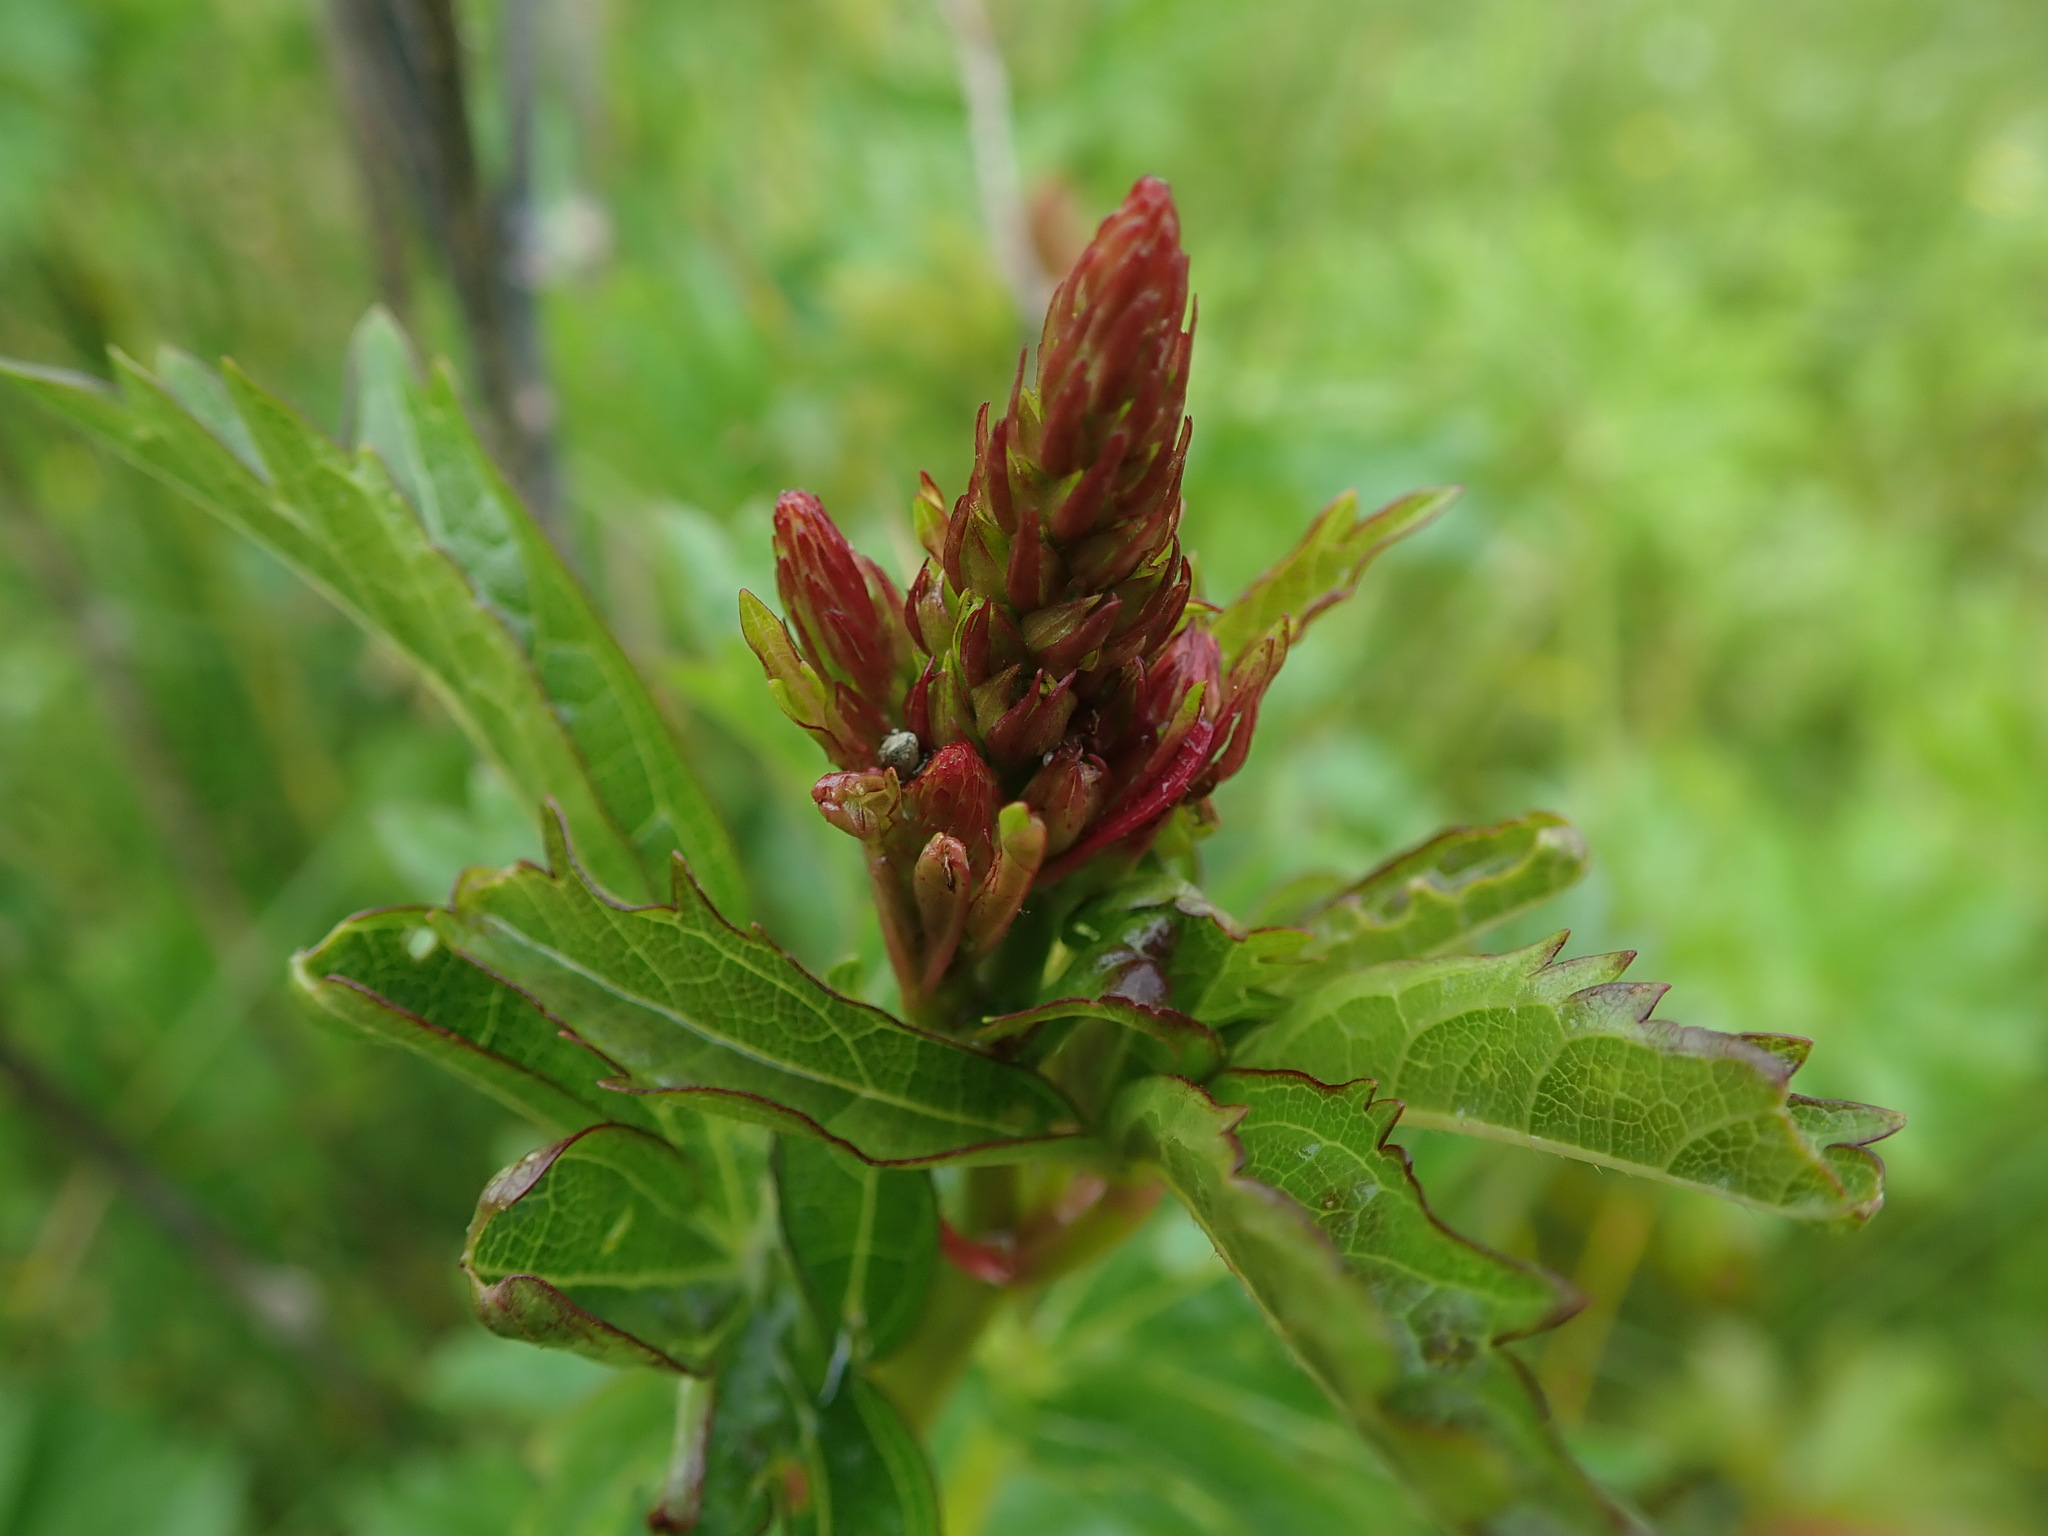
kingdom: Plantae
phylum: Tracheophyta
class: Magnoliopsida
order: Malvales
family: Malvaceae
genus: Sidalcea
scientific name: Sidalcea hendersonii
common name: Mallow
